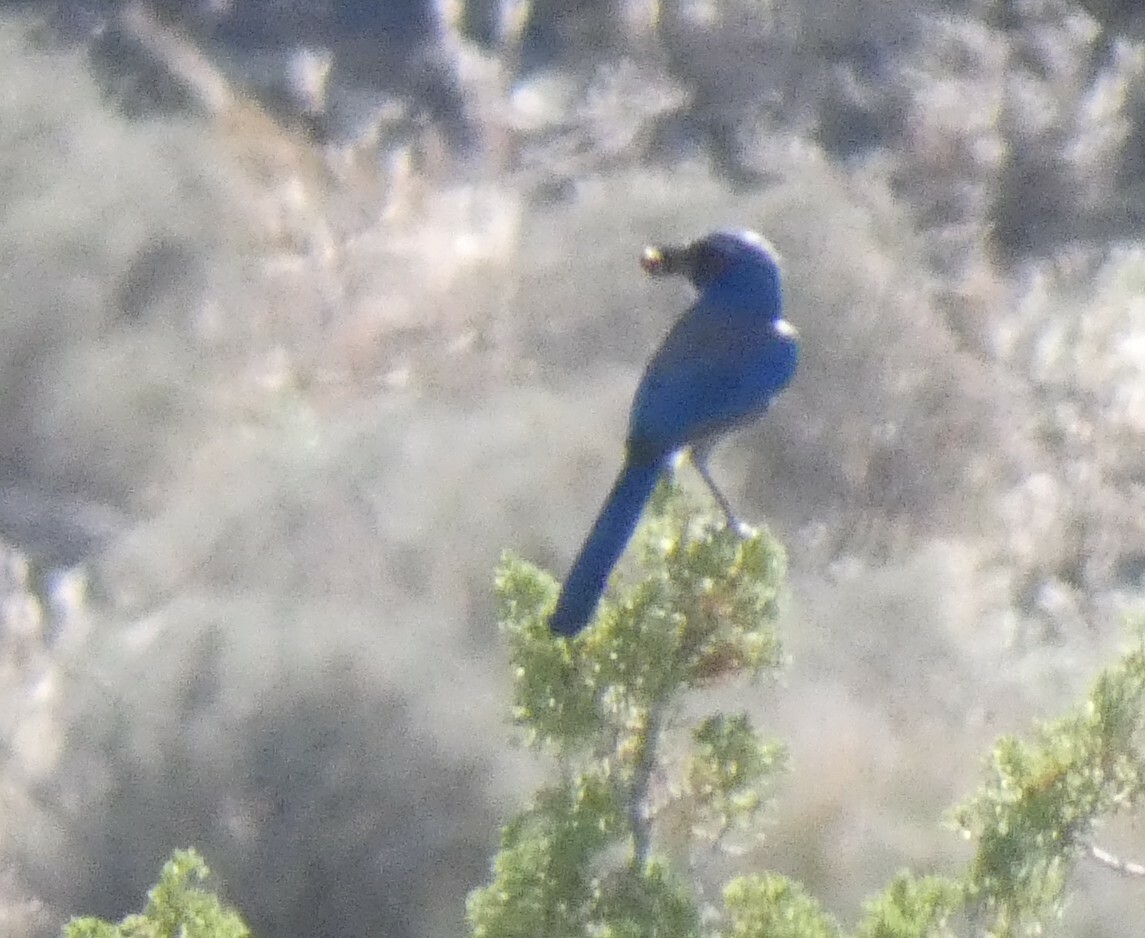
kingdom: Animalia
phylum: Chordata
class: Aves
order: Passeriformes
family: Corvidae
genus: Aphelocoma
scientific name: Aphelocoma californica
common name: California scrub-jay
